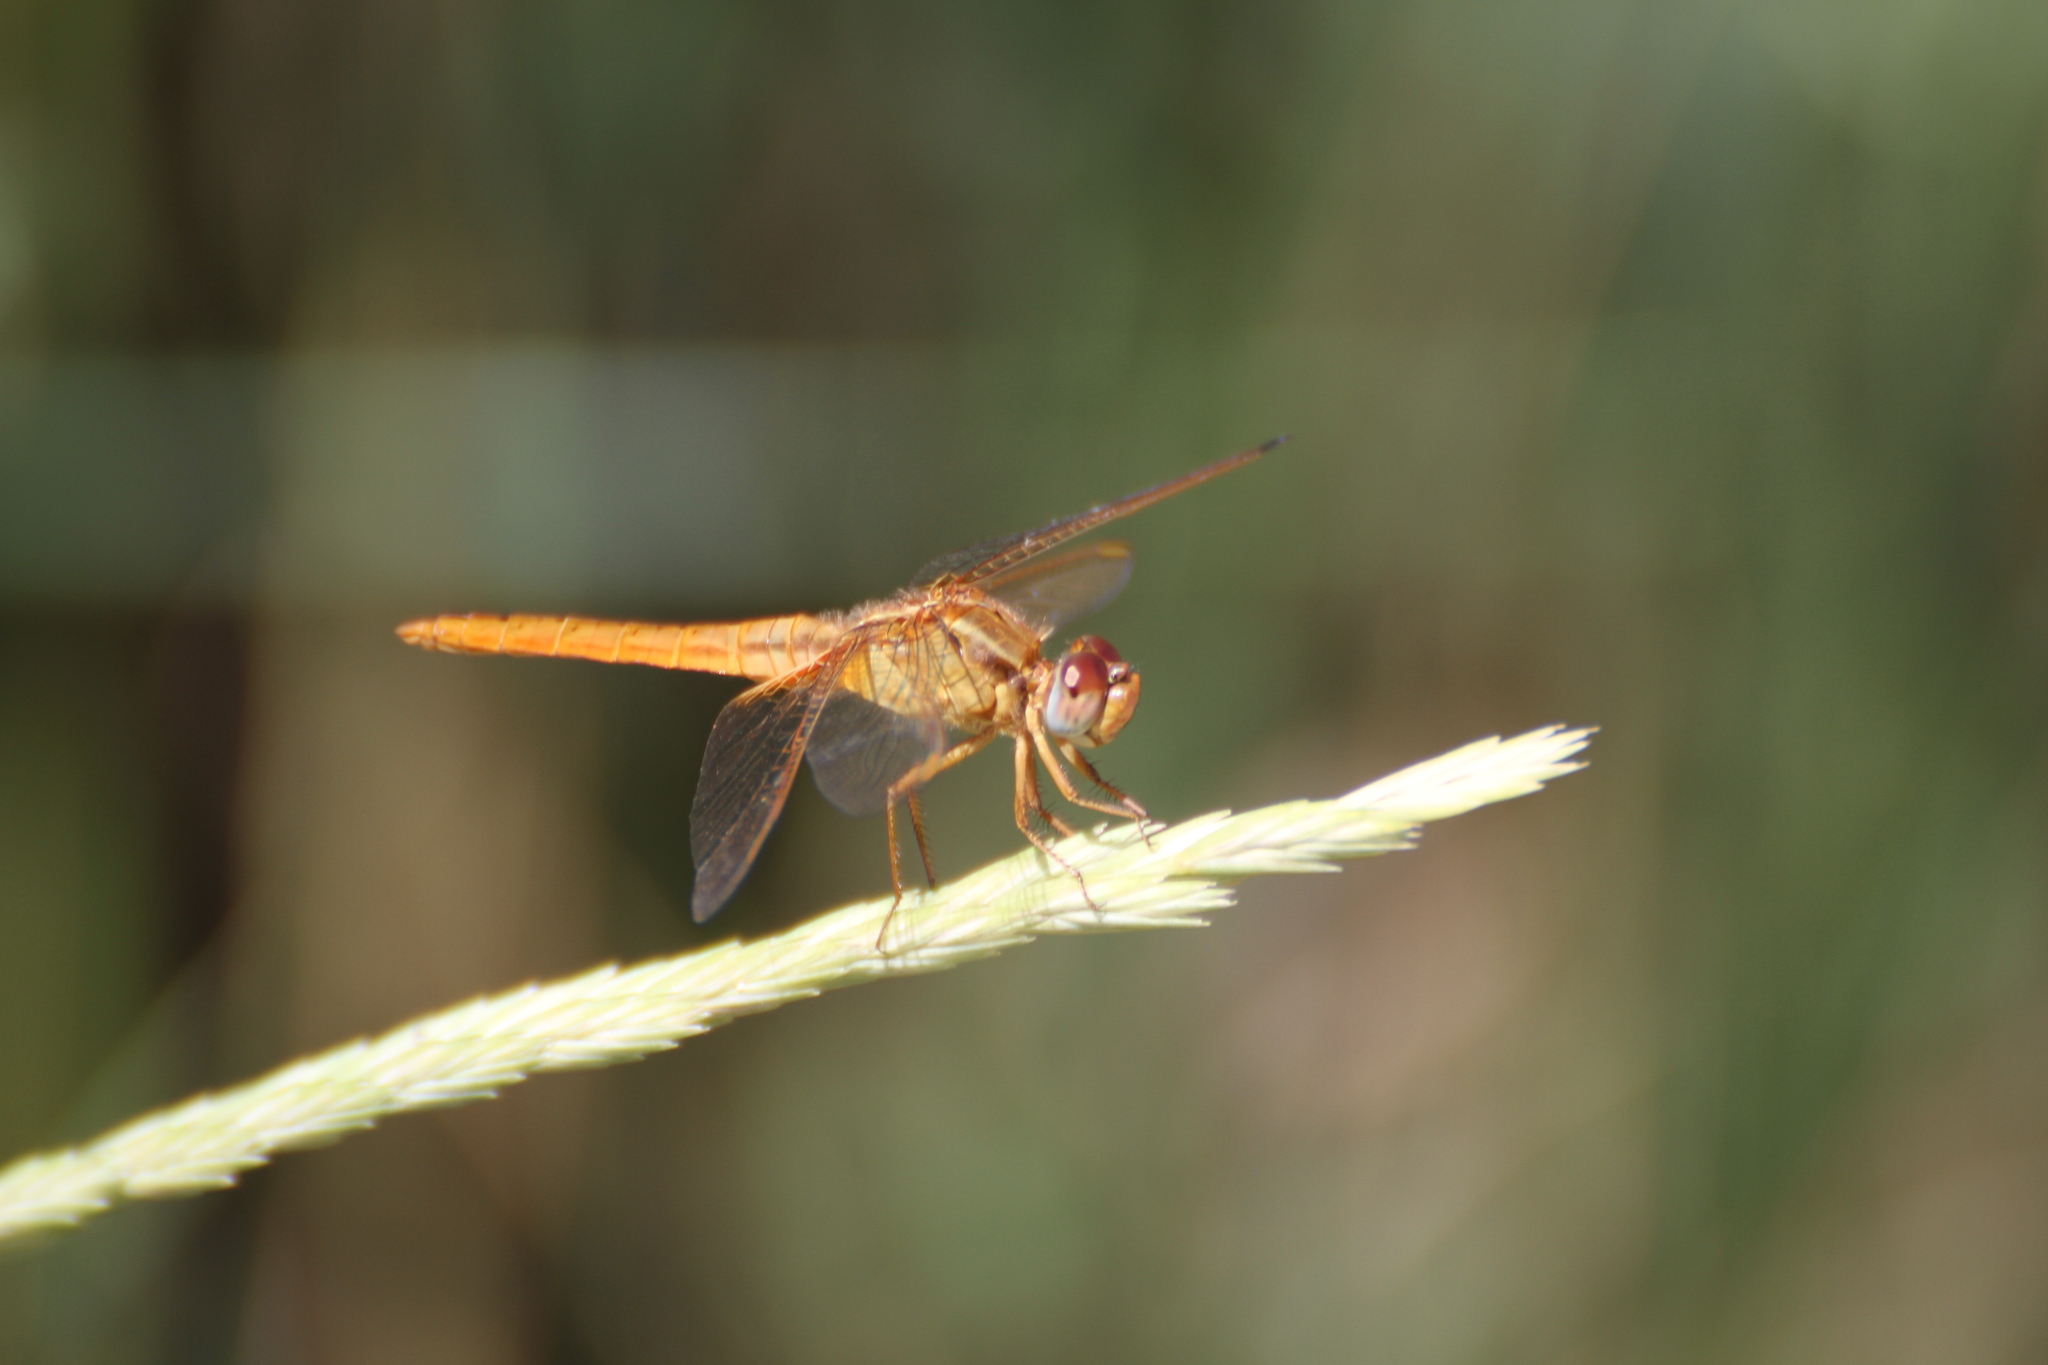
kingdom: Animalia
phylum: Arthropoda
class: Insecta
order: Odonata
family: Libellulidae
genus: Crocothemis
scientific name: Crocothemis erythraea
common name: Scarlet dragonfly
